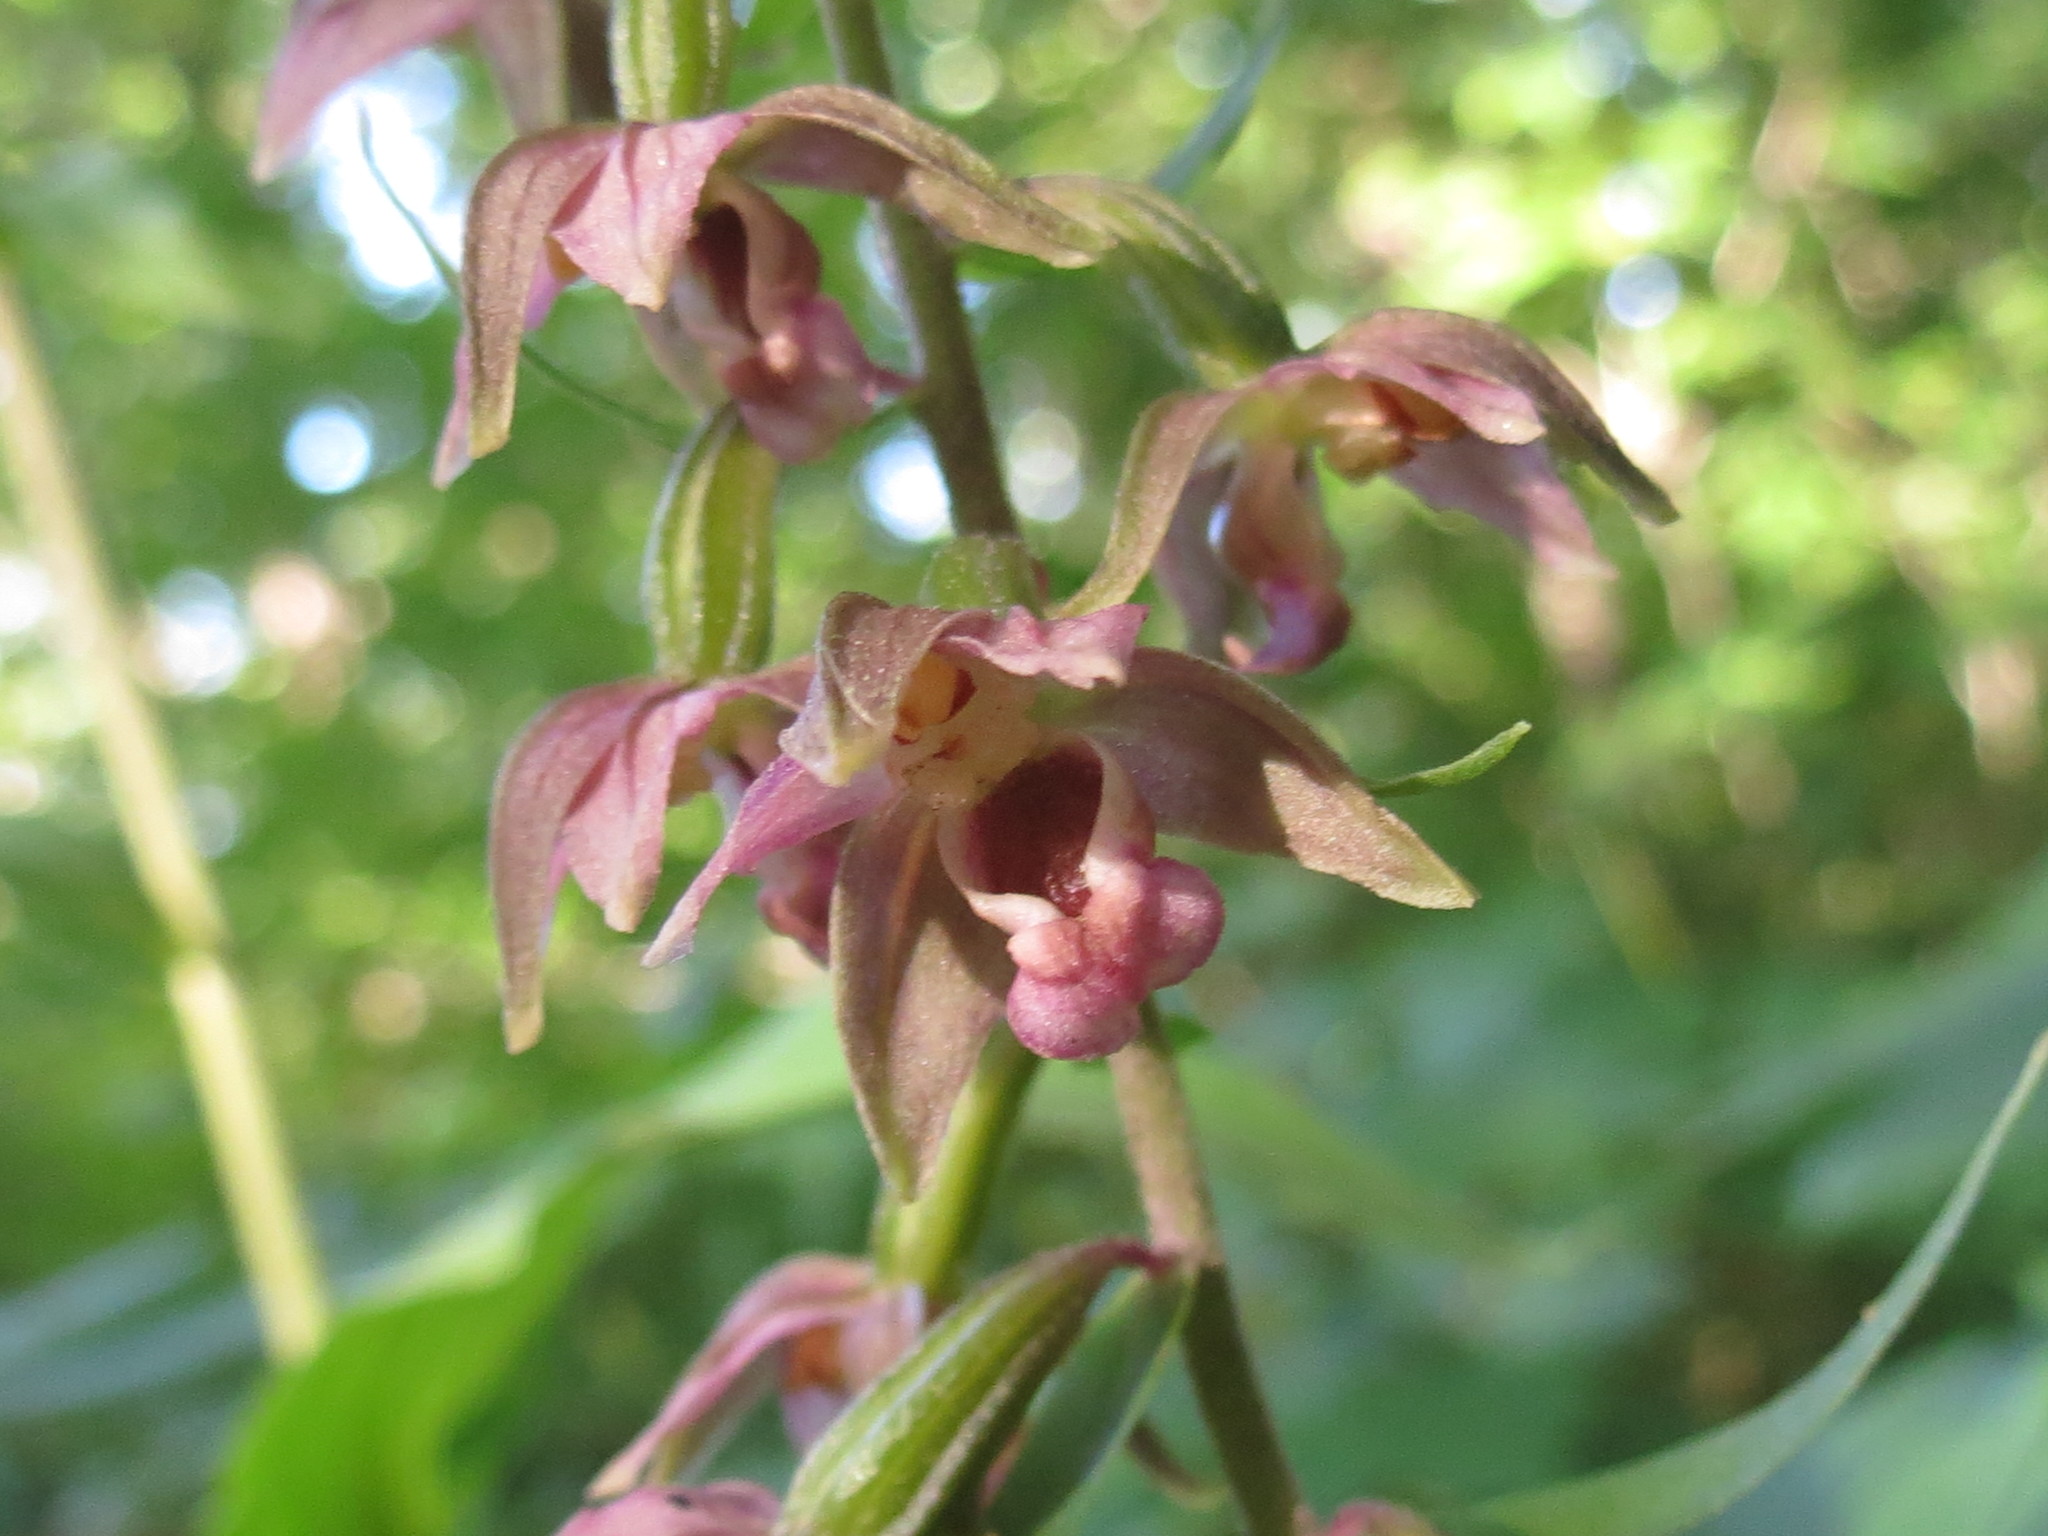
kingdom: Plantae
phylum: Tracheophyta
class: Liliopsida
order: Asparagales
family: Orchidaceae
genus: Epipactis
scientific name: Epipactis helleborine
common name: Broad-leaved helleborine
